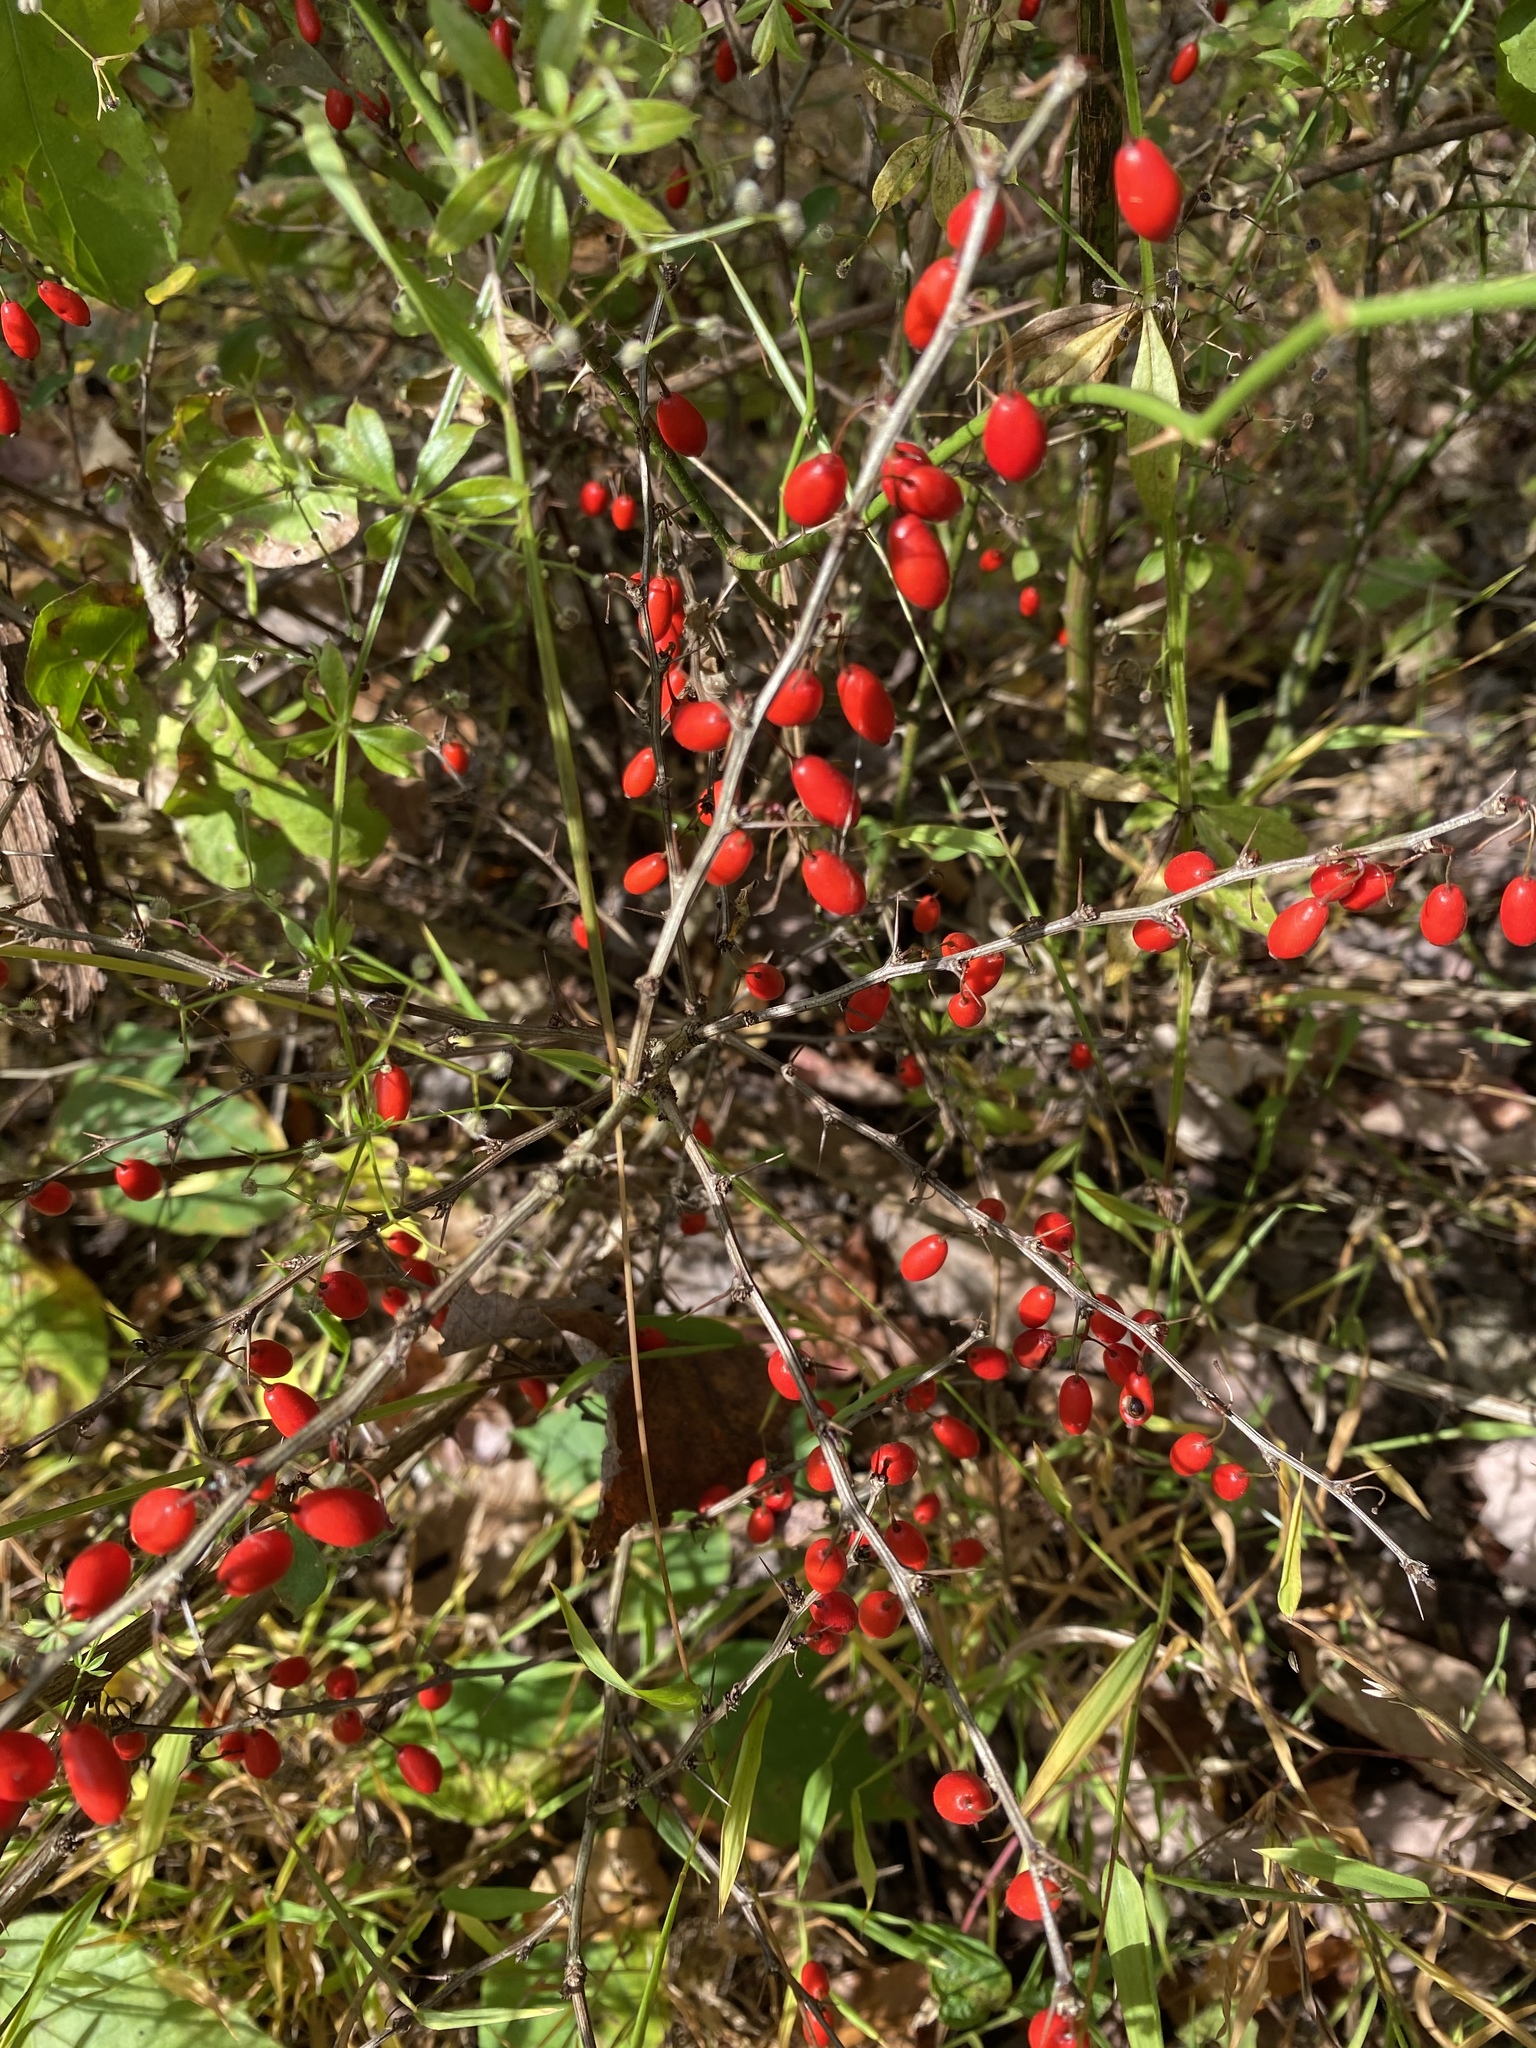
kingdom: Plantae
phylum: Tracheophyta
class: Magnoliopsida
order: Ranunculales
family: Berberidaceae
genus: Berberis
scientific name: Berberis thunbergii
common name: Japanese barberry
